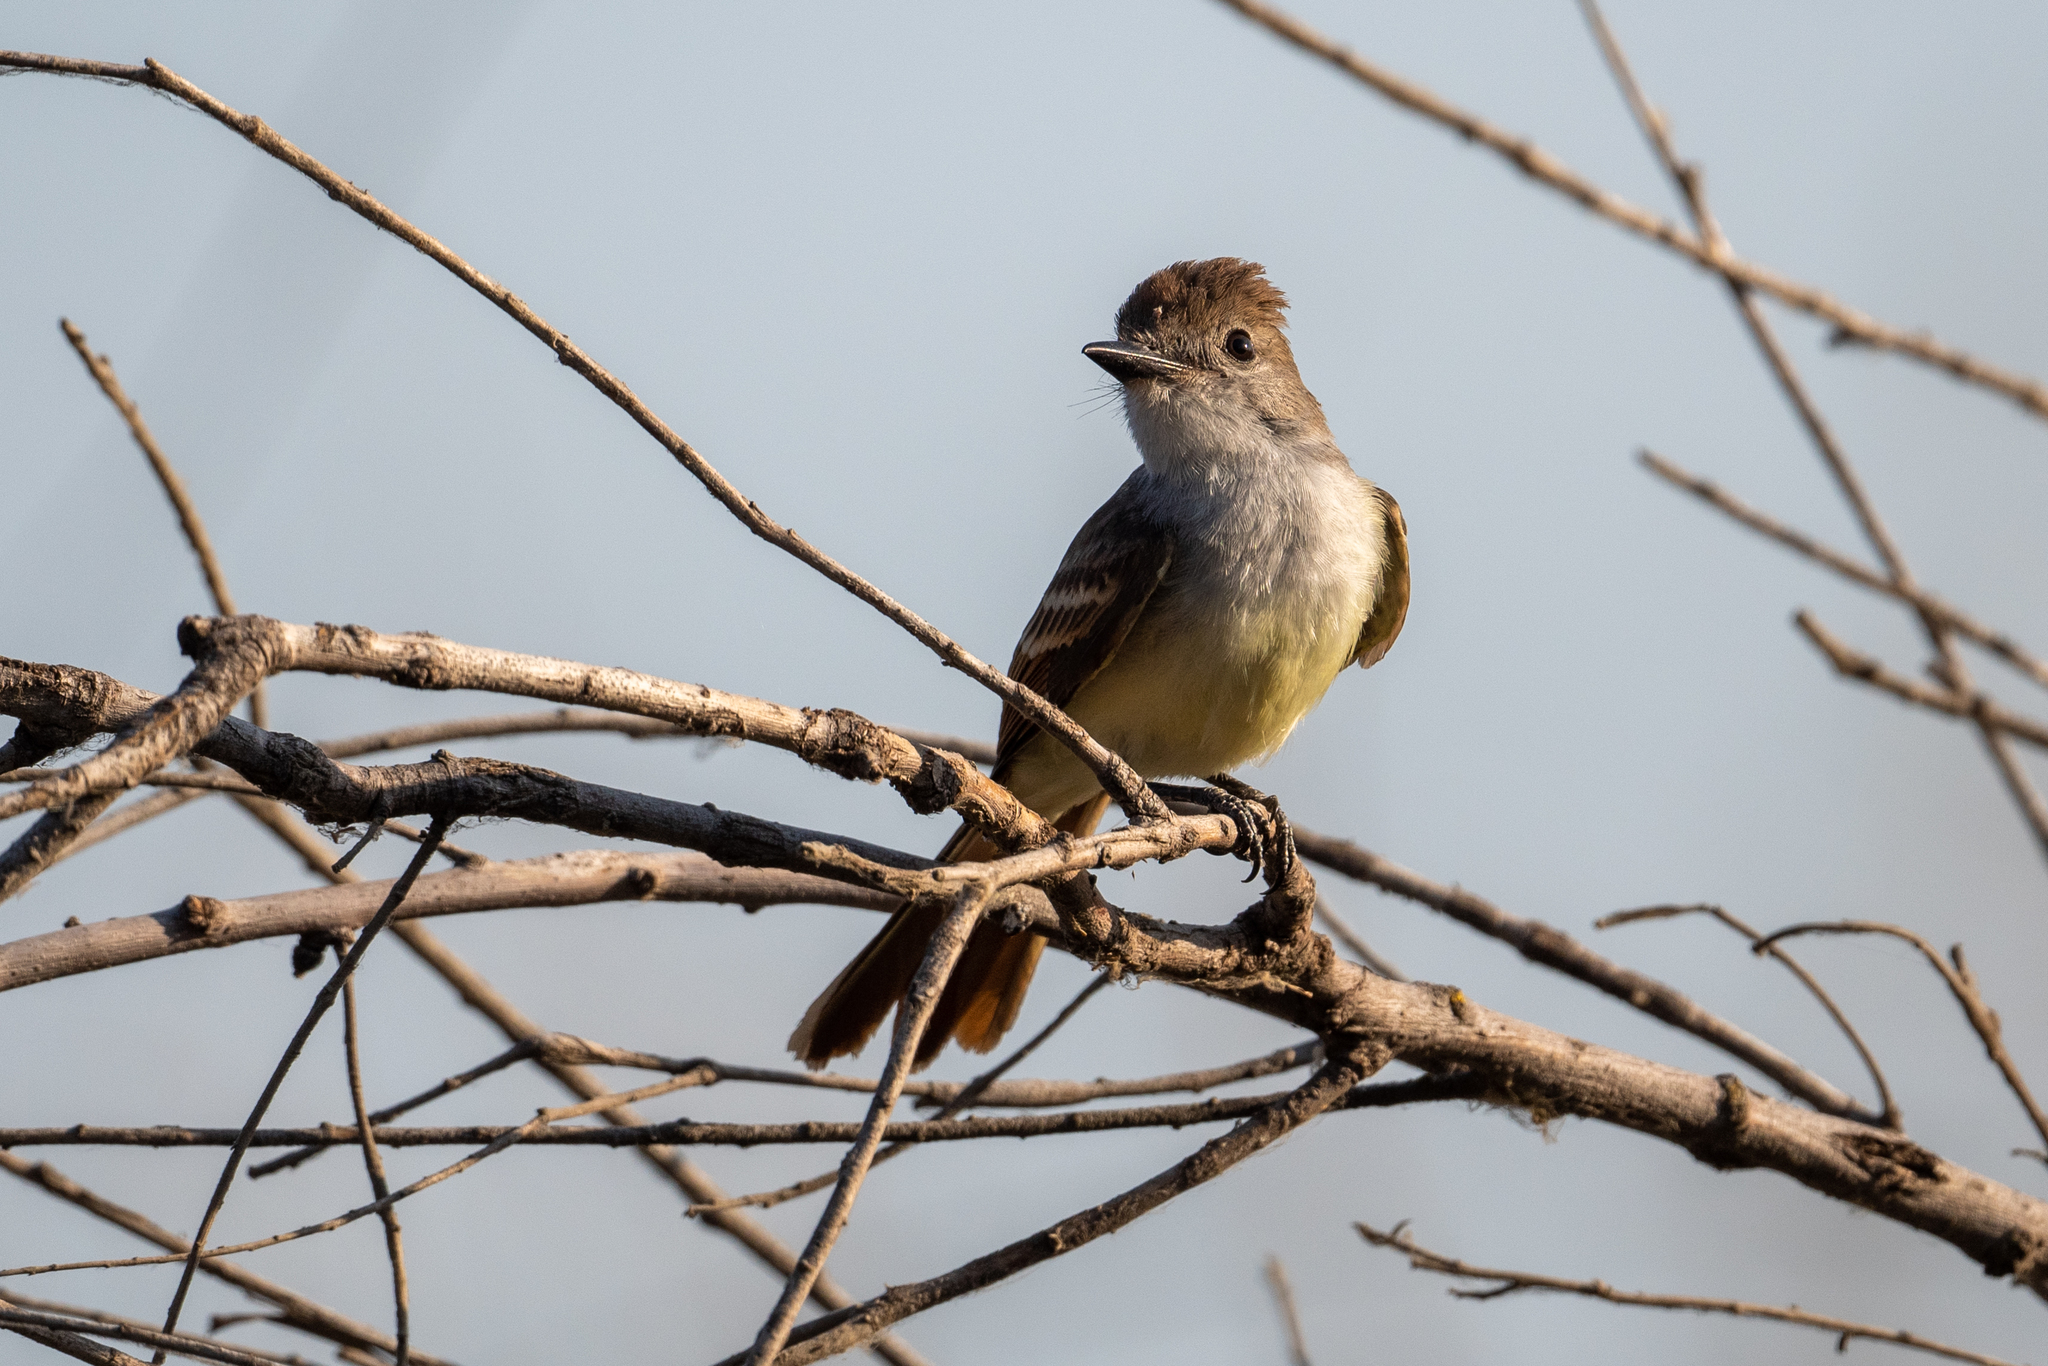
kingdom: Animalia
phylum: Chordata
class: Aves
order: Passeriformes
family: Tyrannidae
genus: Myiarchus
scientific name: Myiarchus cinerascens
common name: Ash-throated flycatcher
